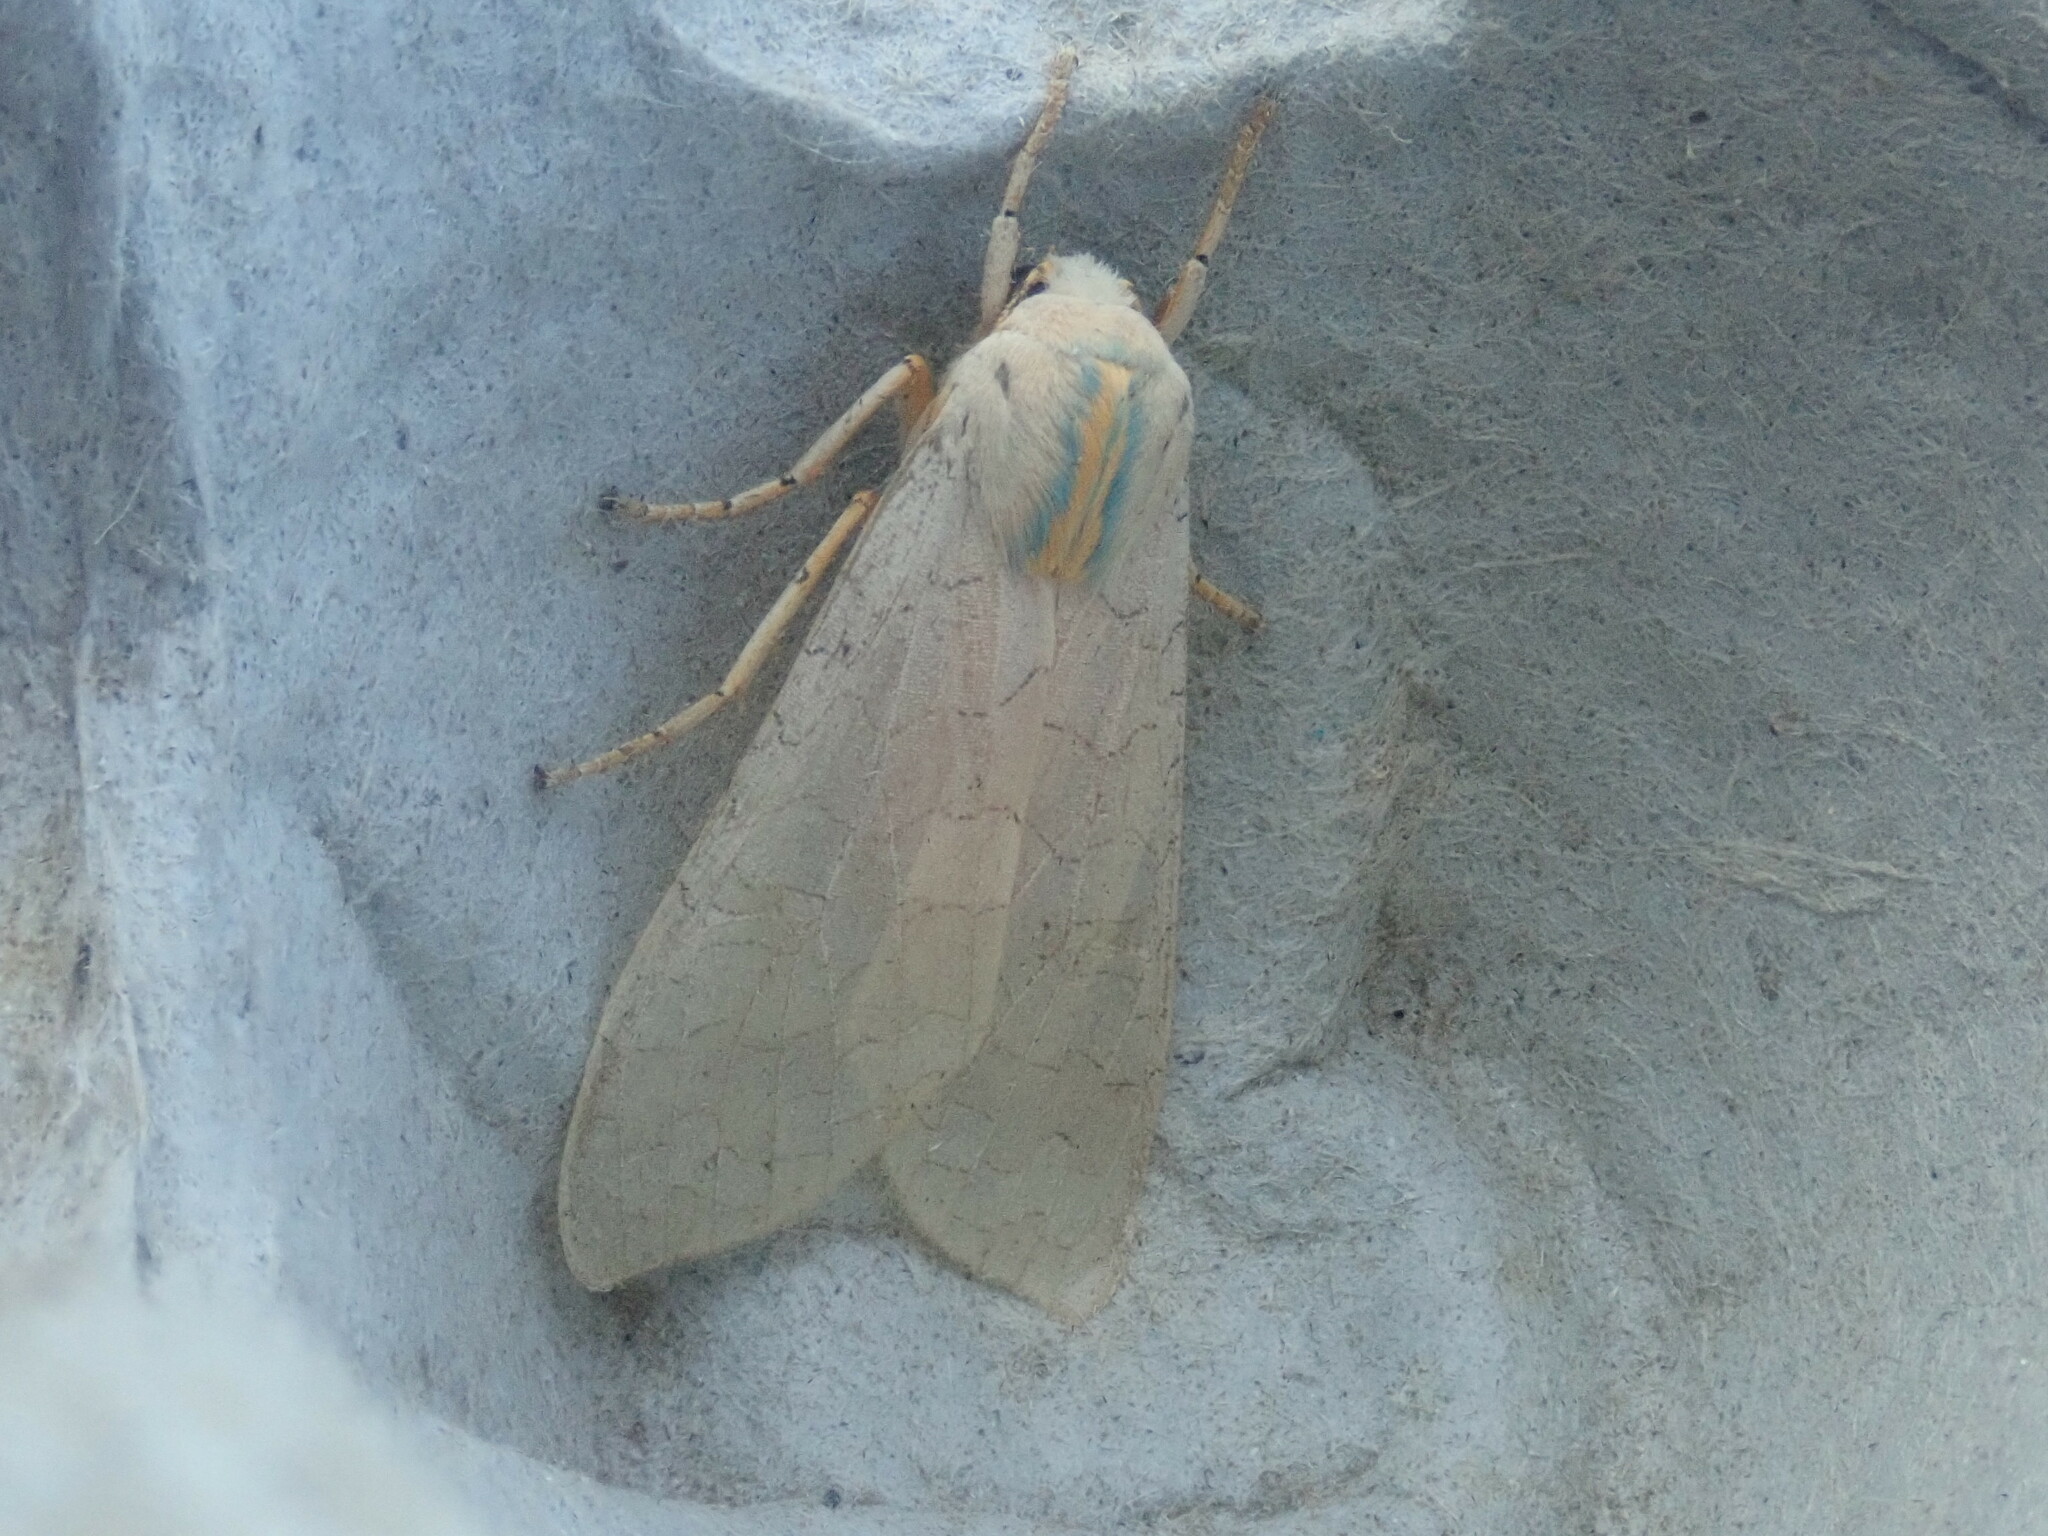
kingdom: Animalia
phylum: Arthropoda
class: Insecta
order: Lepidoptera
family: Erebidae
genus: Halysidota
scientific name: Halysidota
